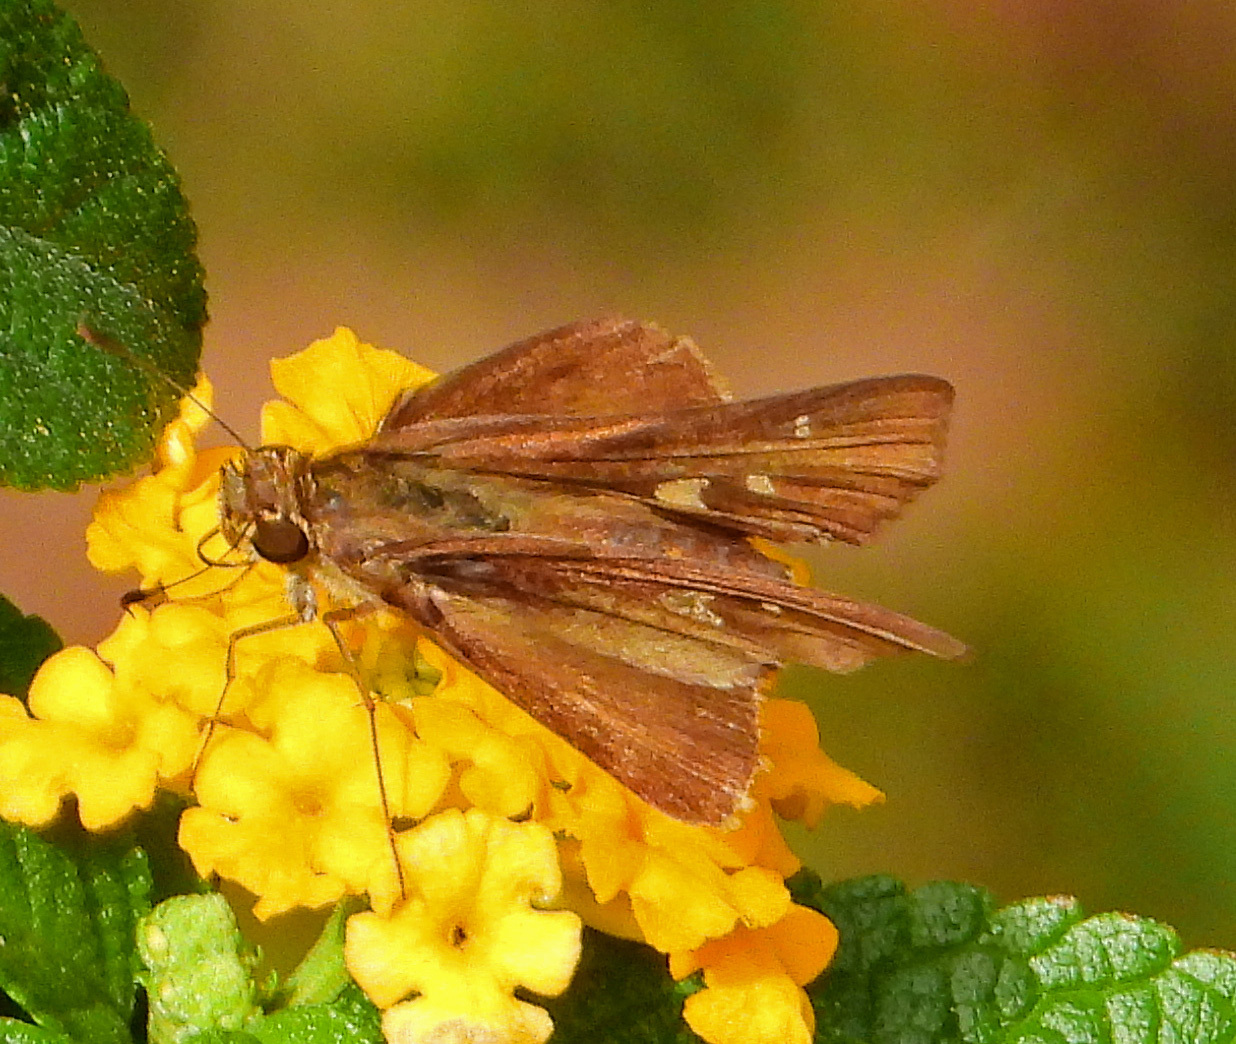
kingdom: Animalia
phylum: Arthropoda
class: Insecta
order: Lepidoptera
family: Hesperiidae
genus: Panoquina
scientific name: Panoquina ocola
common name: Ocola skipper
